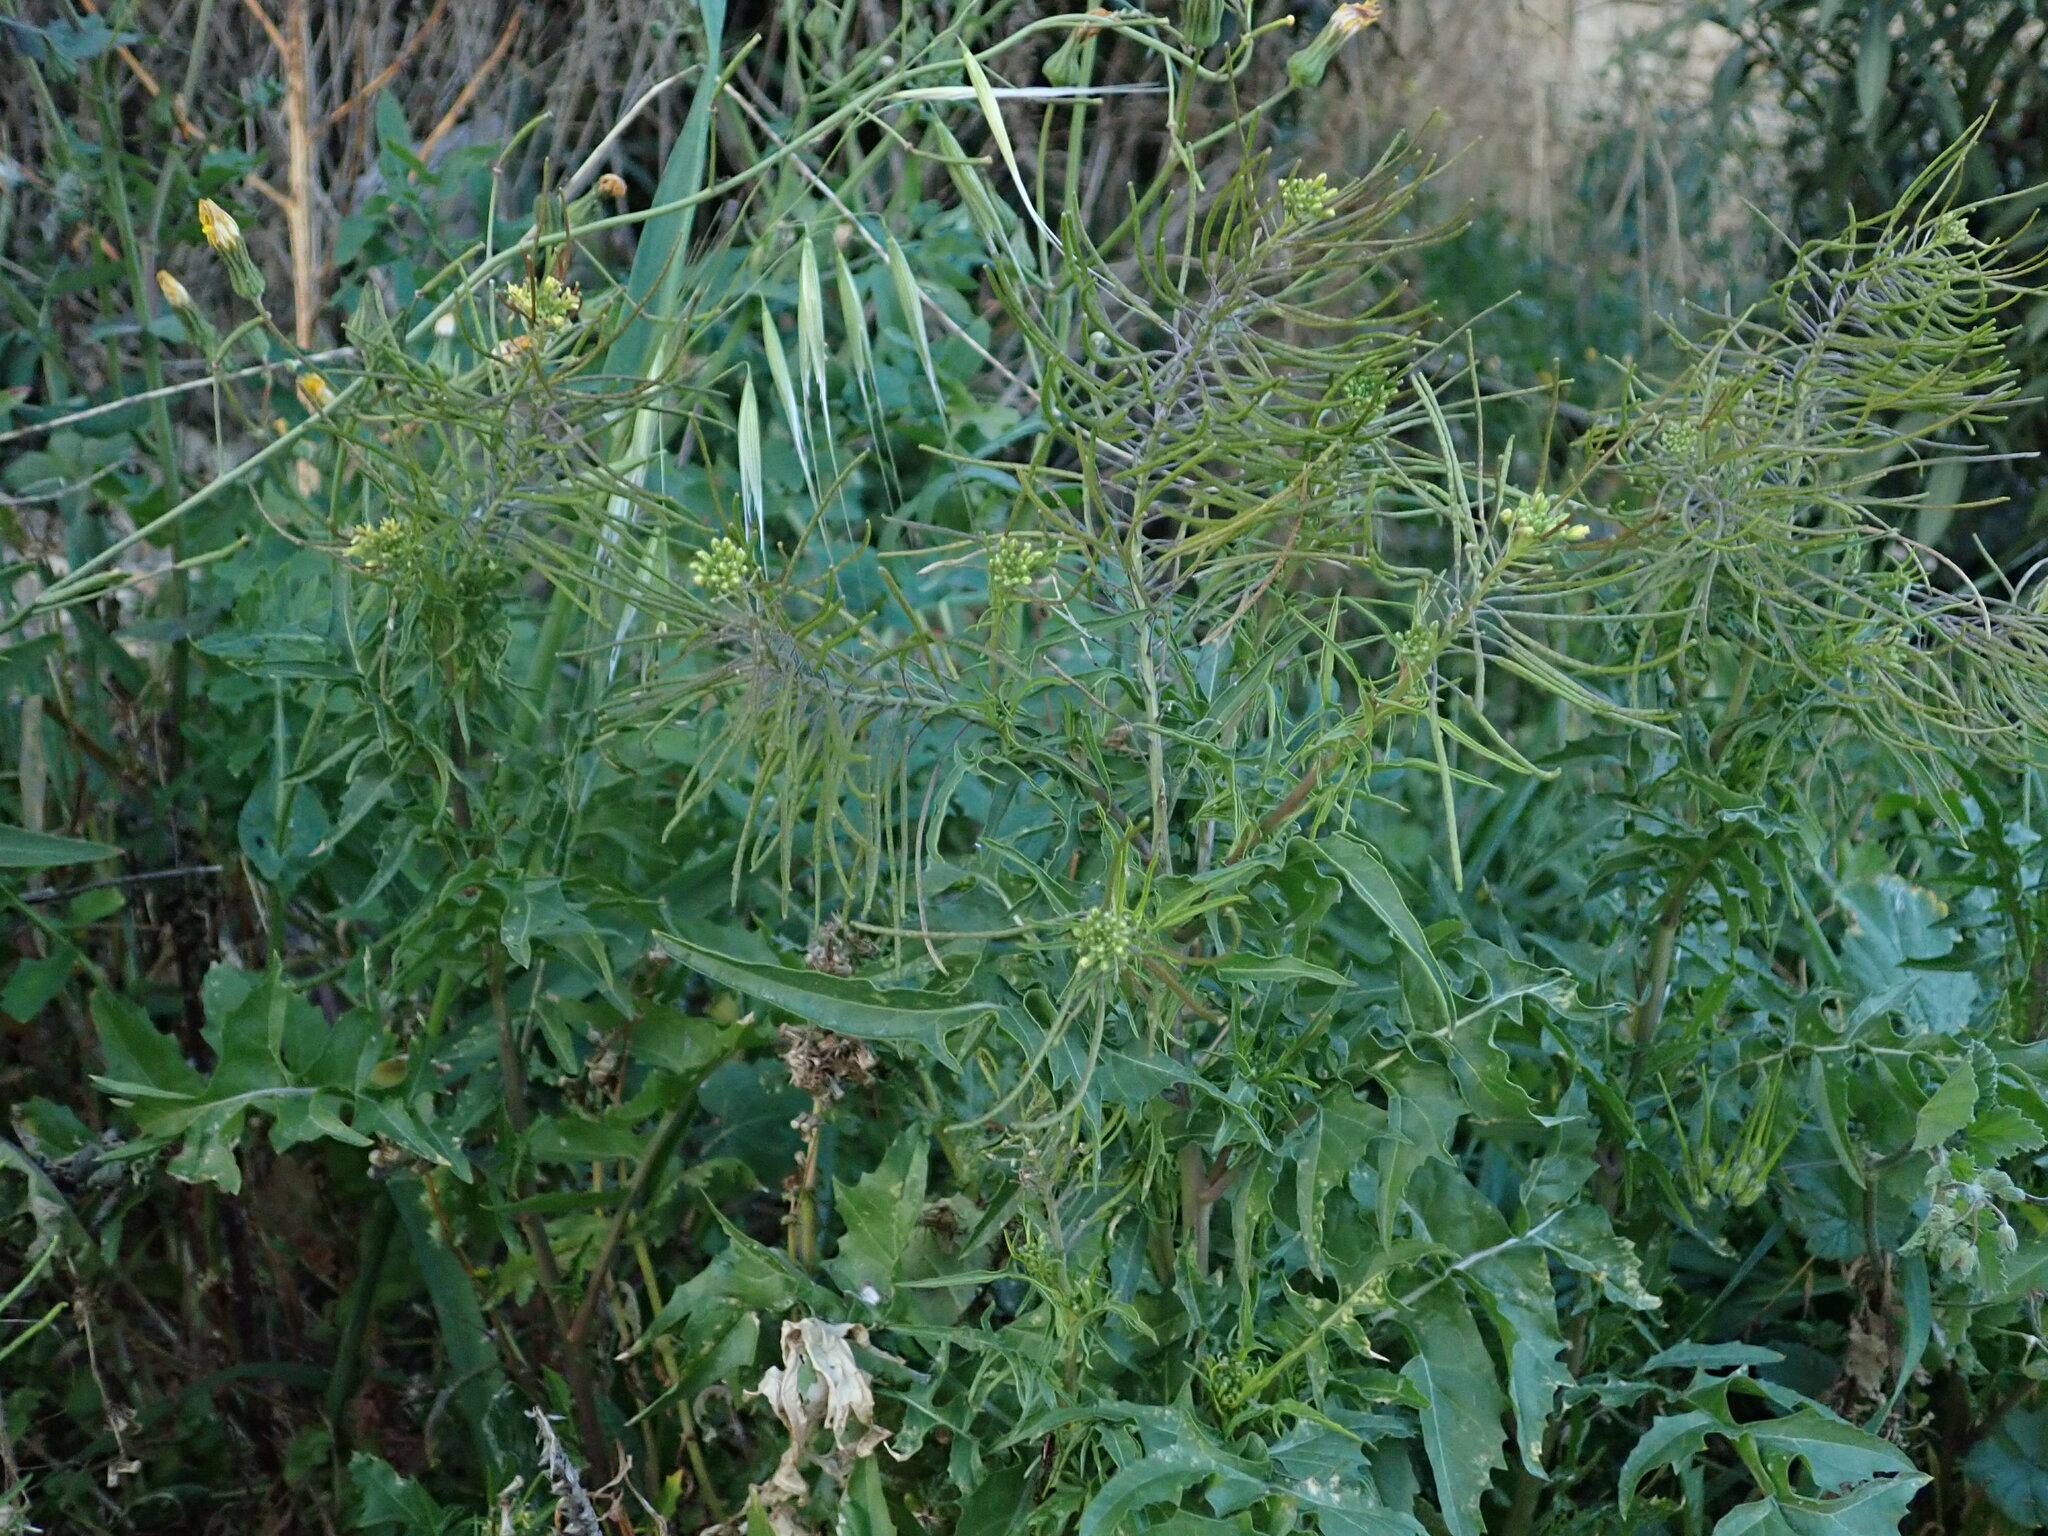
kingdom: Plantae
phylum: Tracheophyta
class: Magnoliopsida
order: Brassicales
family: Brassicaceae
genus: Sisymbrium
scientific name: Sisymbrium irio
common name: London rocket
